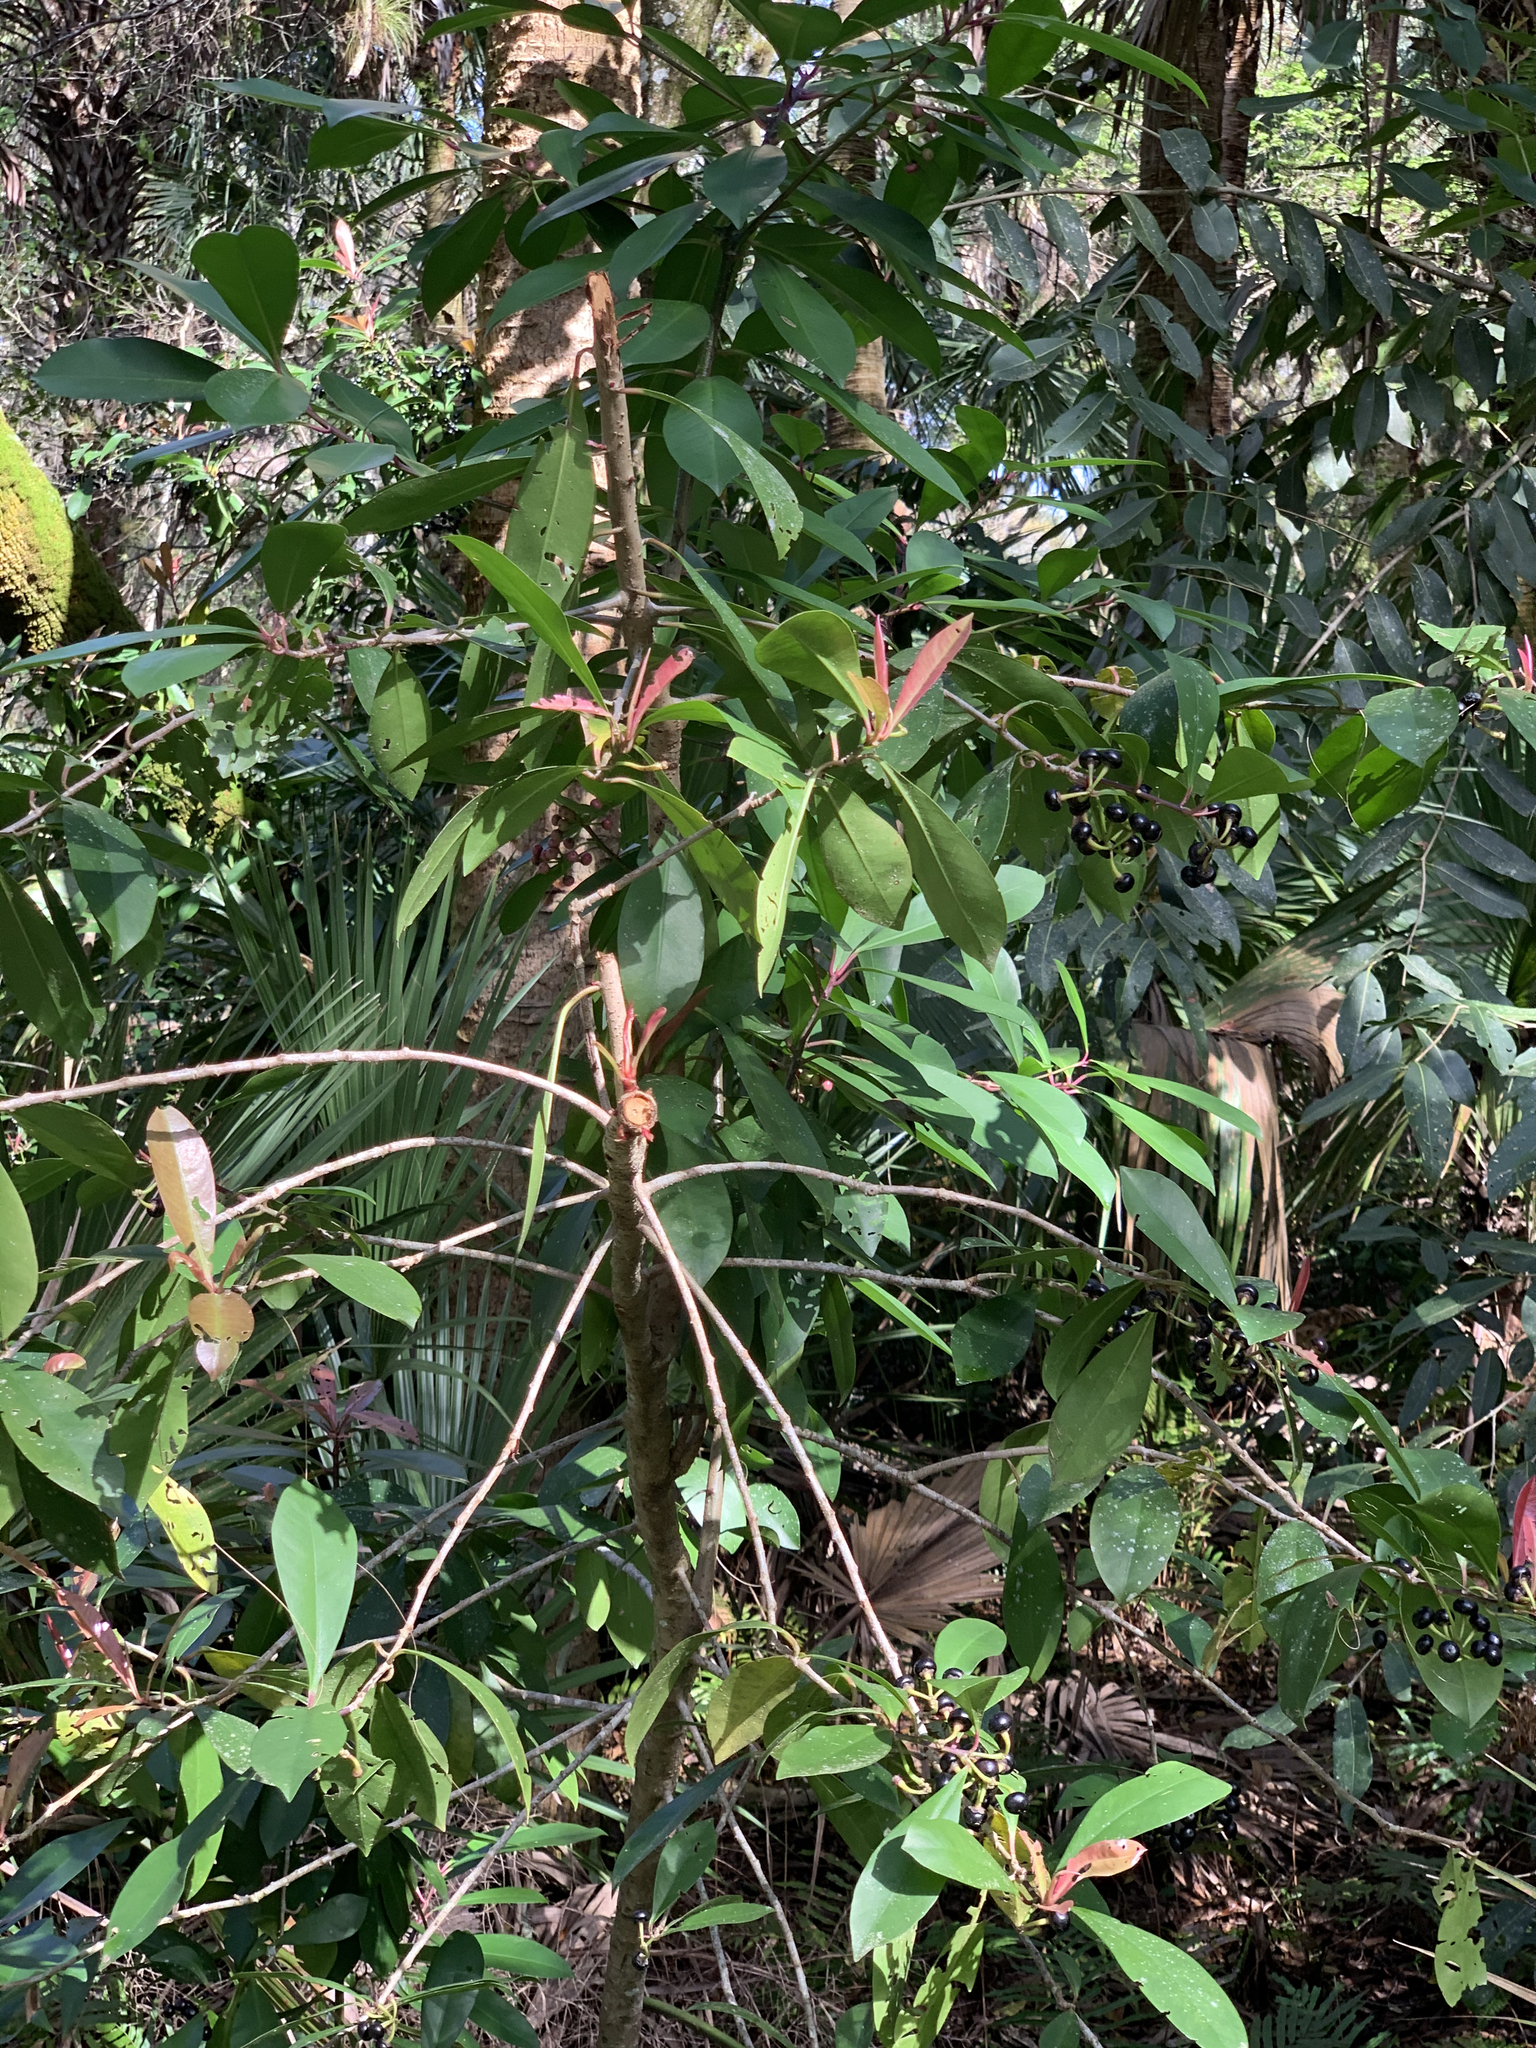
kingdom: Plantae
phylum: Tracheophyta
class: Magnoliopsida
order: Ericales
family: Primulaceae
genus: Ardisia
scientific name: Ardisia elliptica
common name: Shoebutton
